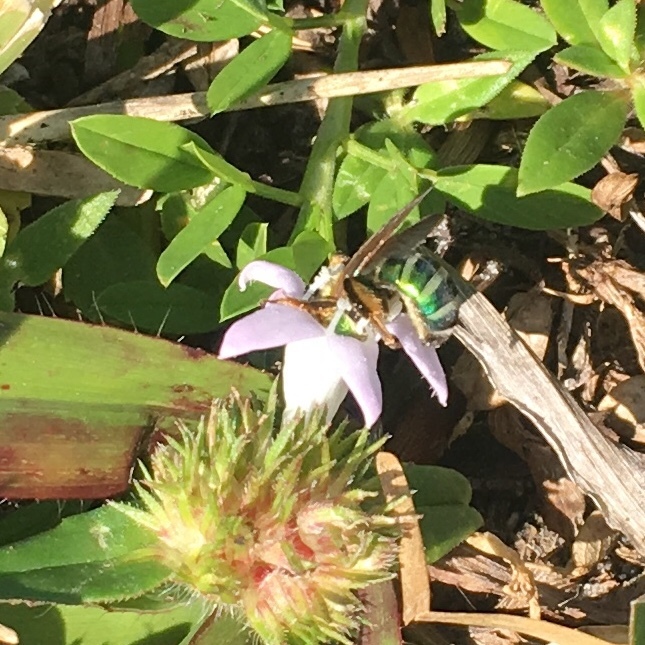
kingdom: Animalia
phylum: Arthropoda
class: Insecta
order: Hymenoptera
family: Halictidae
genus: Agapostemon
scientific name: Agapostemon splendens
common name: Brown-winged striped sweat bee
